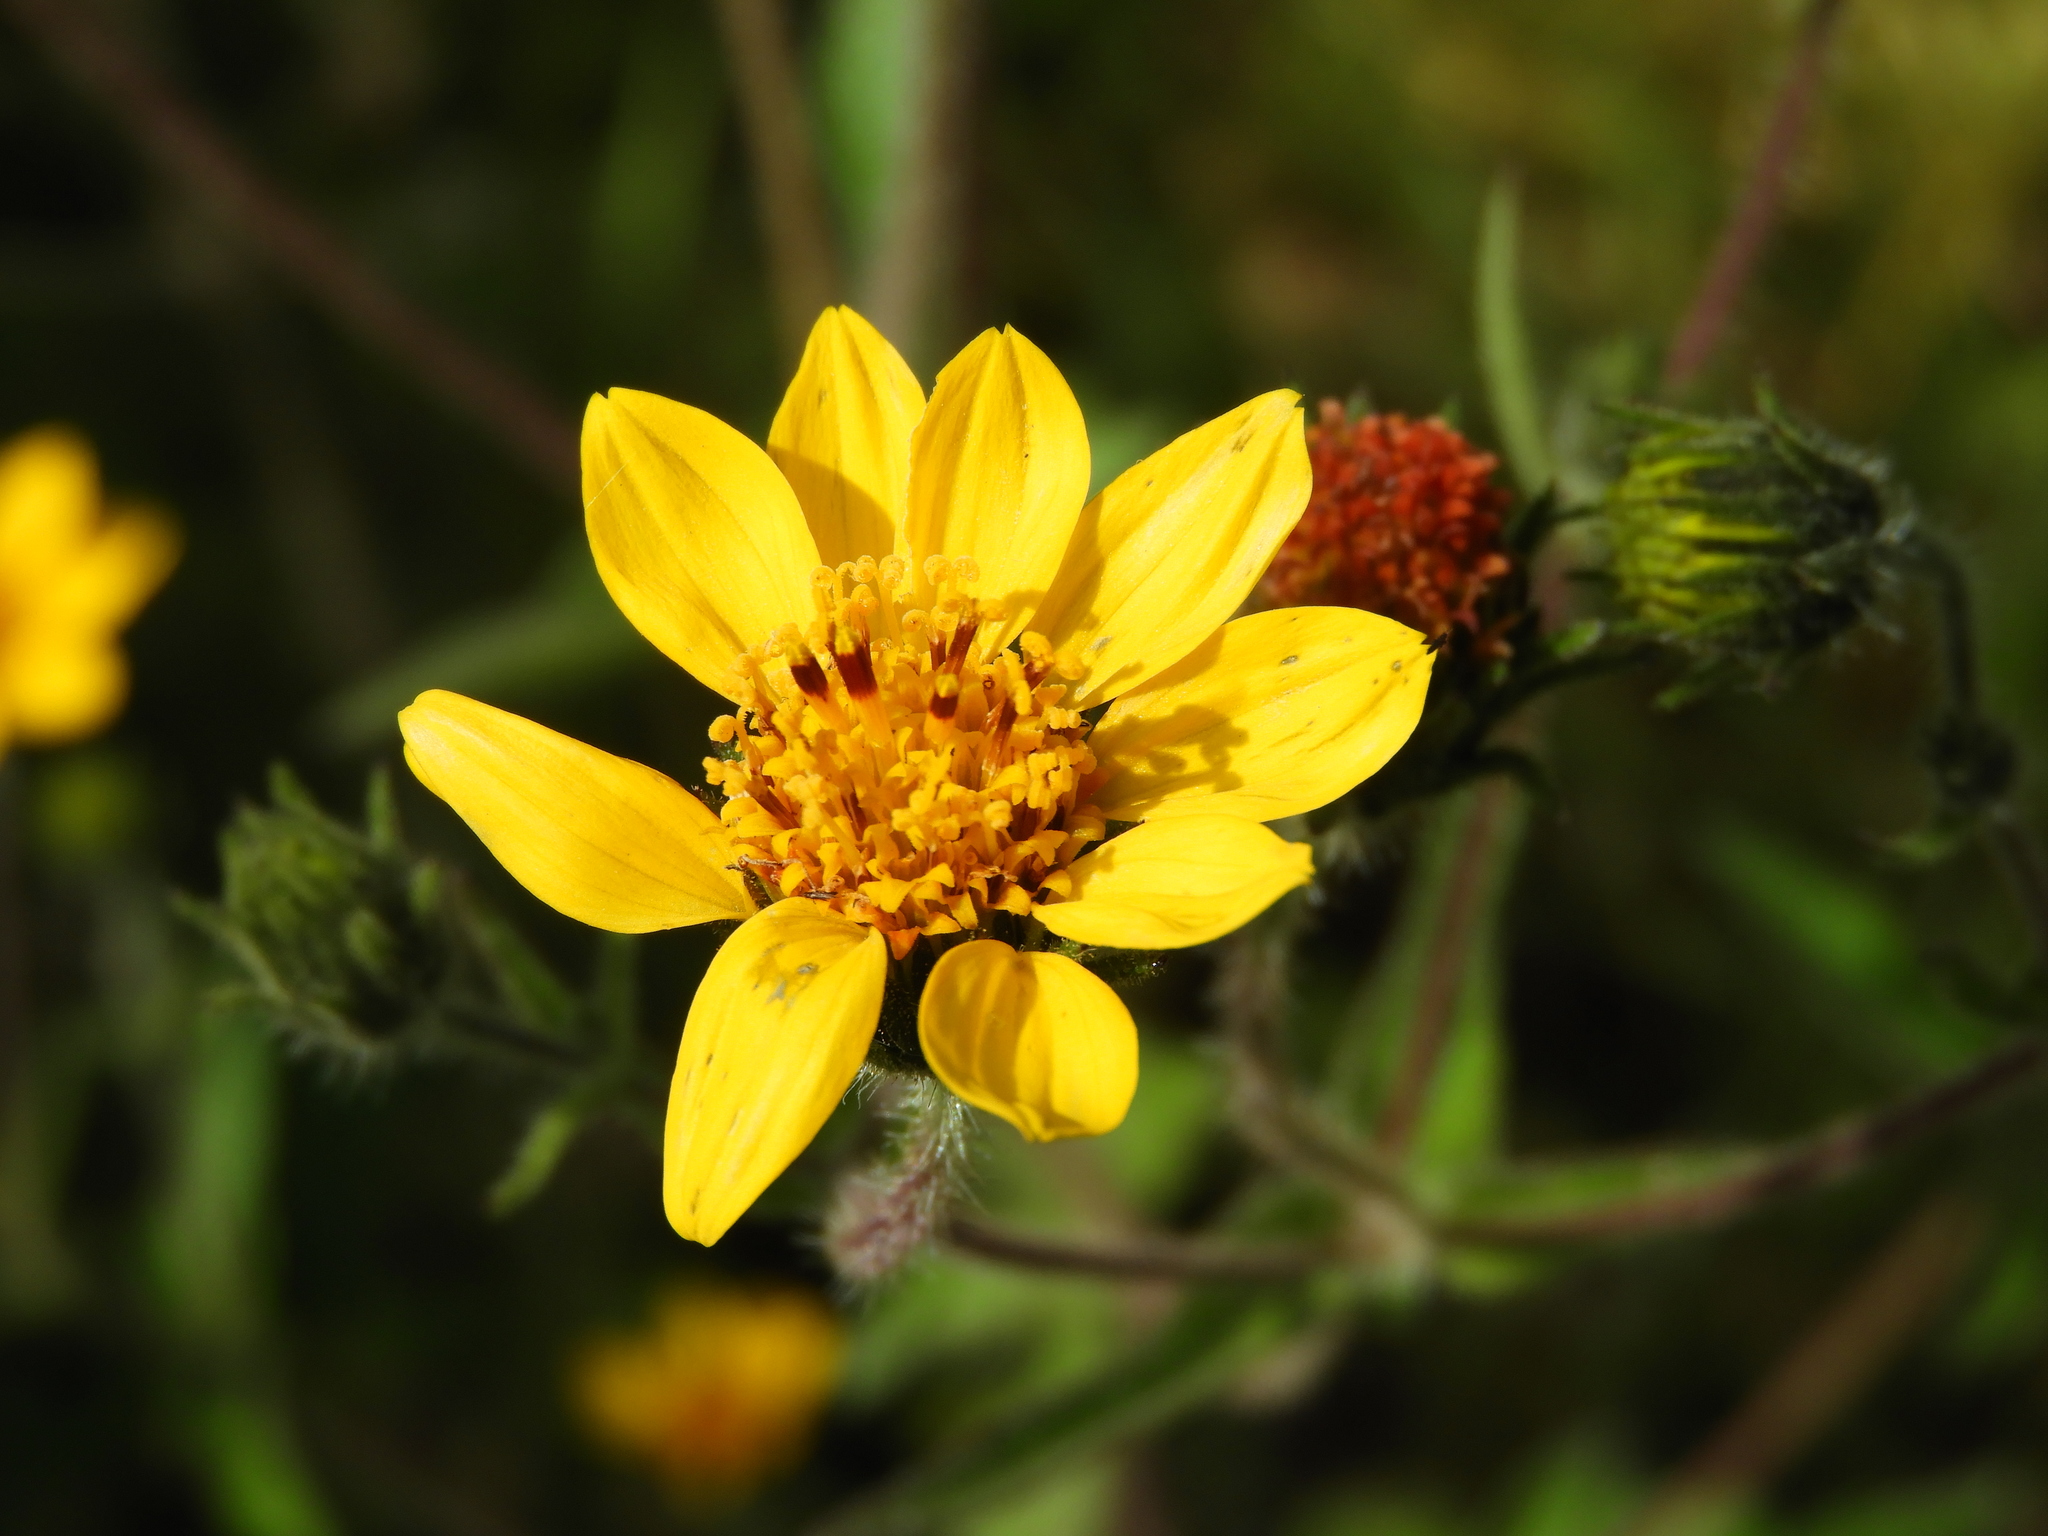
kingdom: Plantae
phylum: Tracheophyta
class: Magnoliopsida
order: Asterales
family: Asteraceae
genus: Simsia
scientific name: Simsia amplexicaulis
